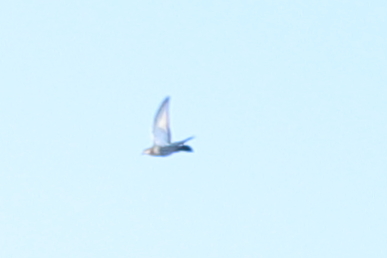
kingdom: Animalia
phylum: Chordata
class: Aves
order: Columbiformes
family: Columbidae
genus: Columba
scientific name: Columba livia
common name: Rock pigeon
